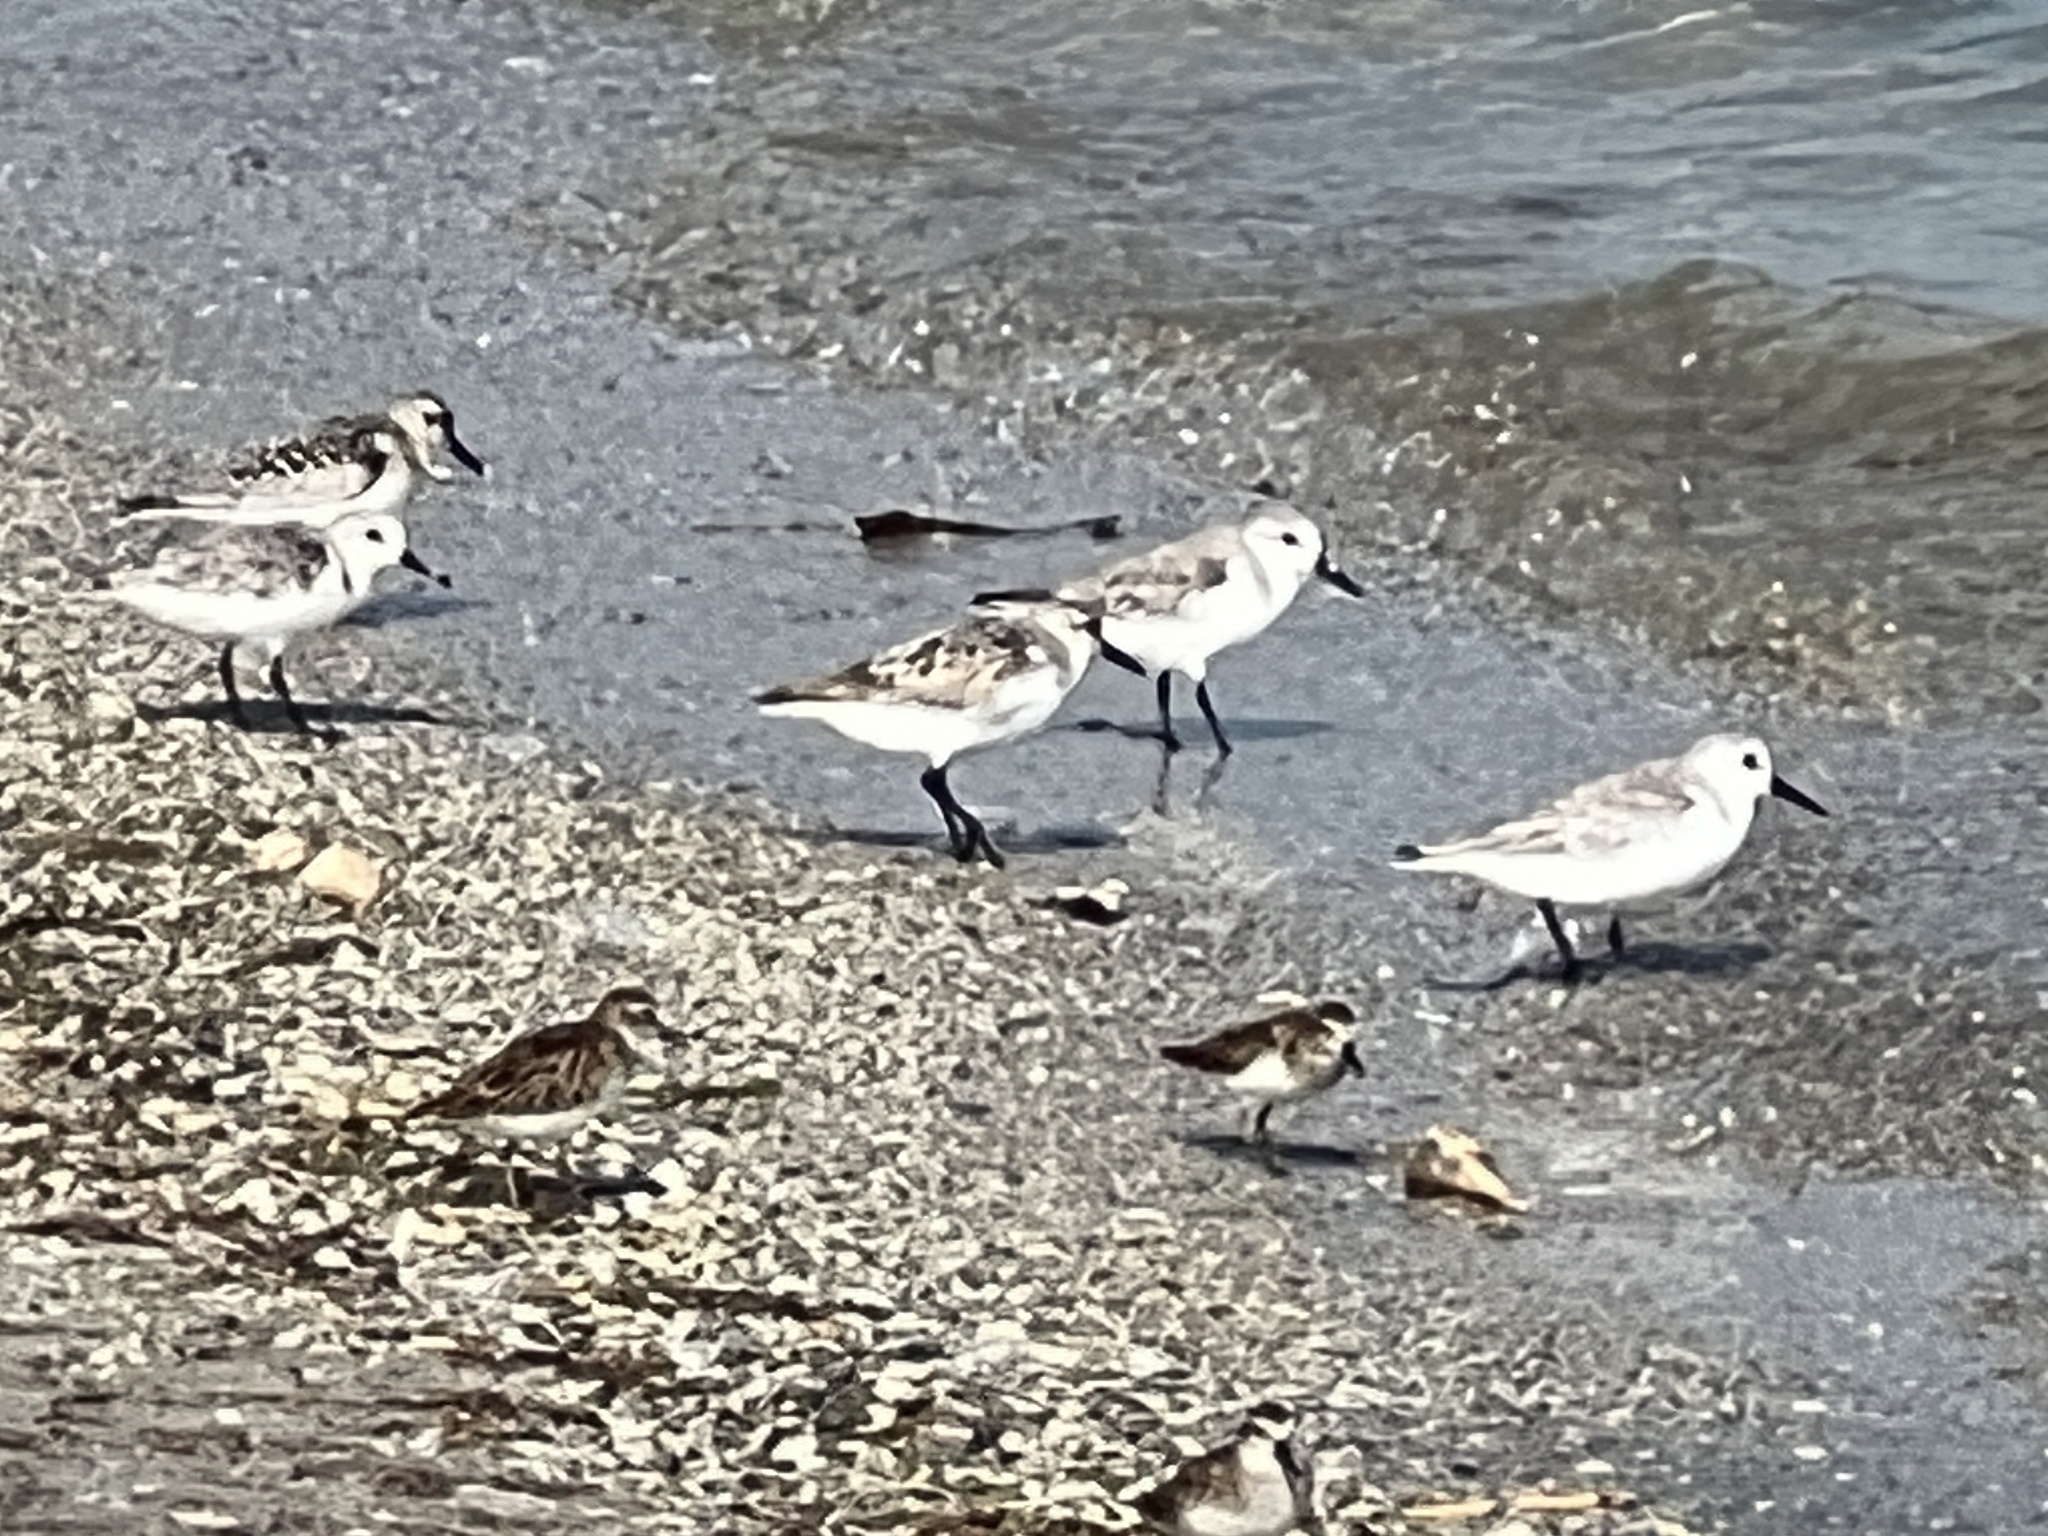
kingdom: Animalia
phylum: Chordata
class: Aves
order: Charadriiformes
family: Scolopacidae
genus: Calidris
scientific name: Calidris alba
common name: Sanderling
